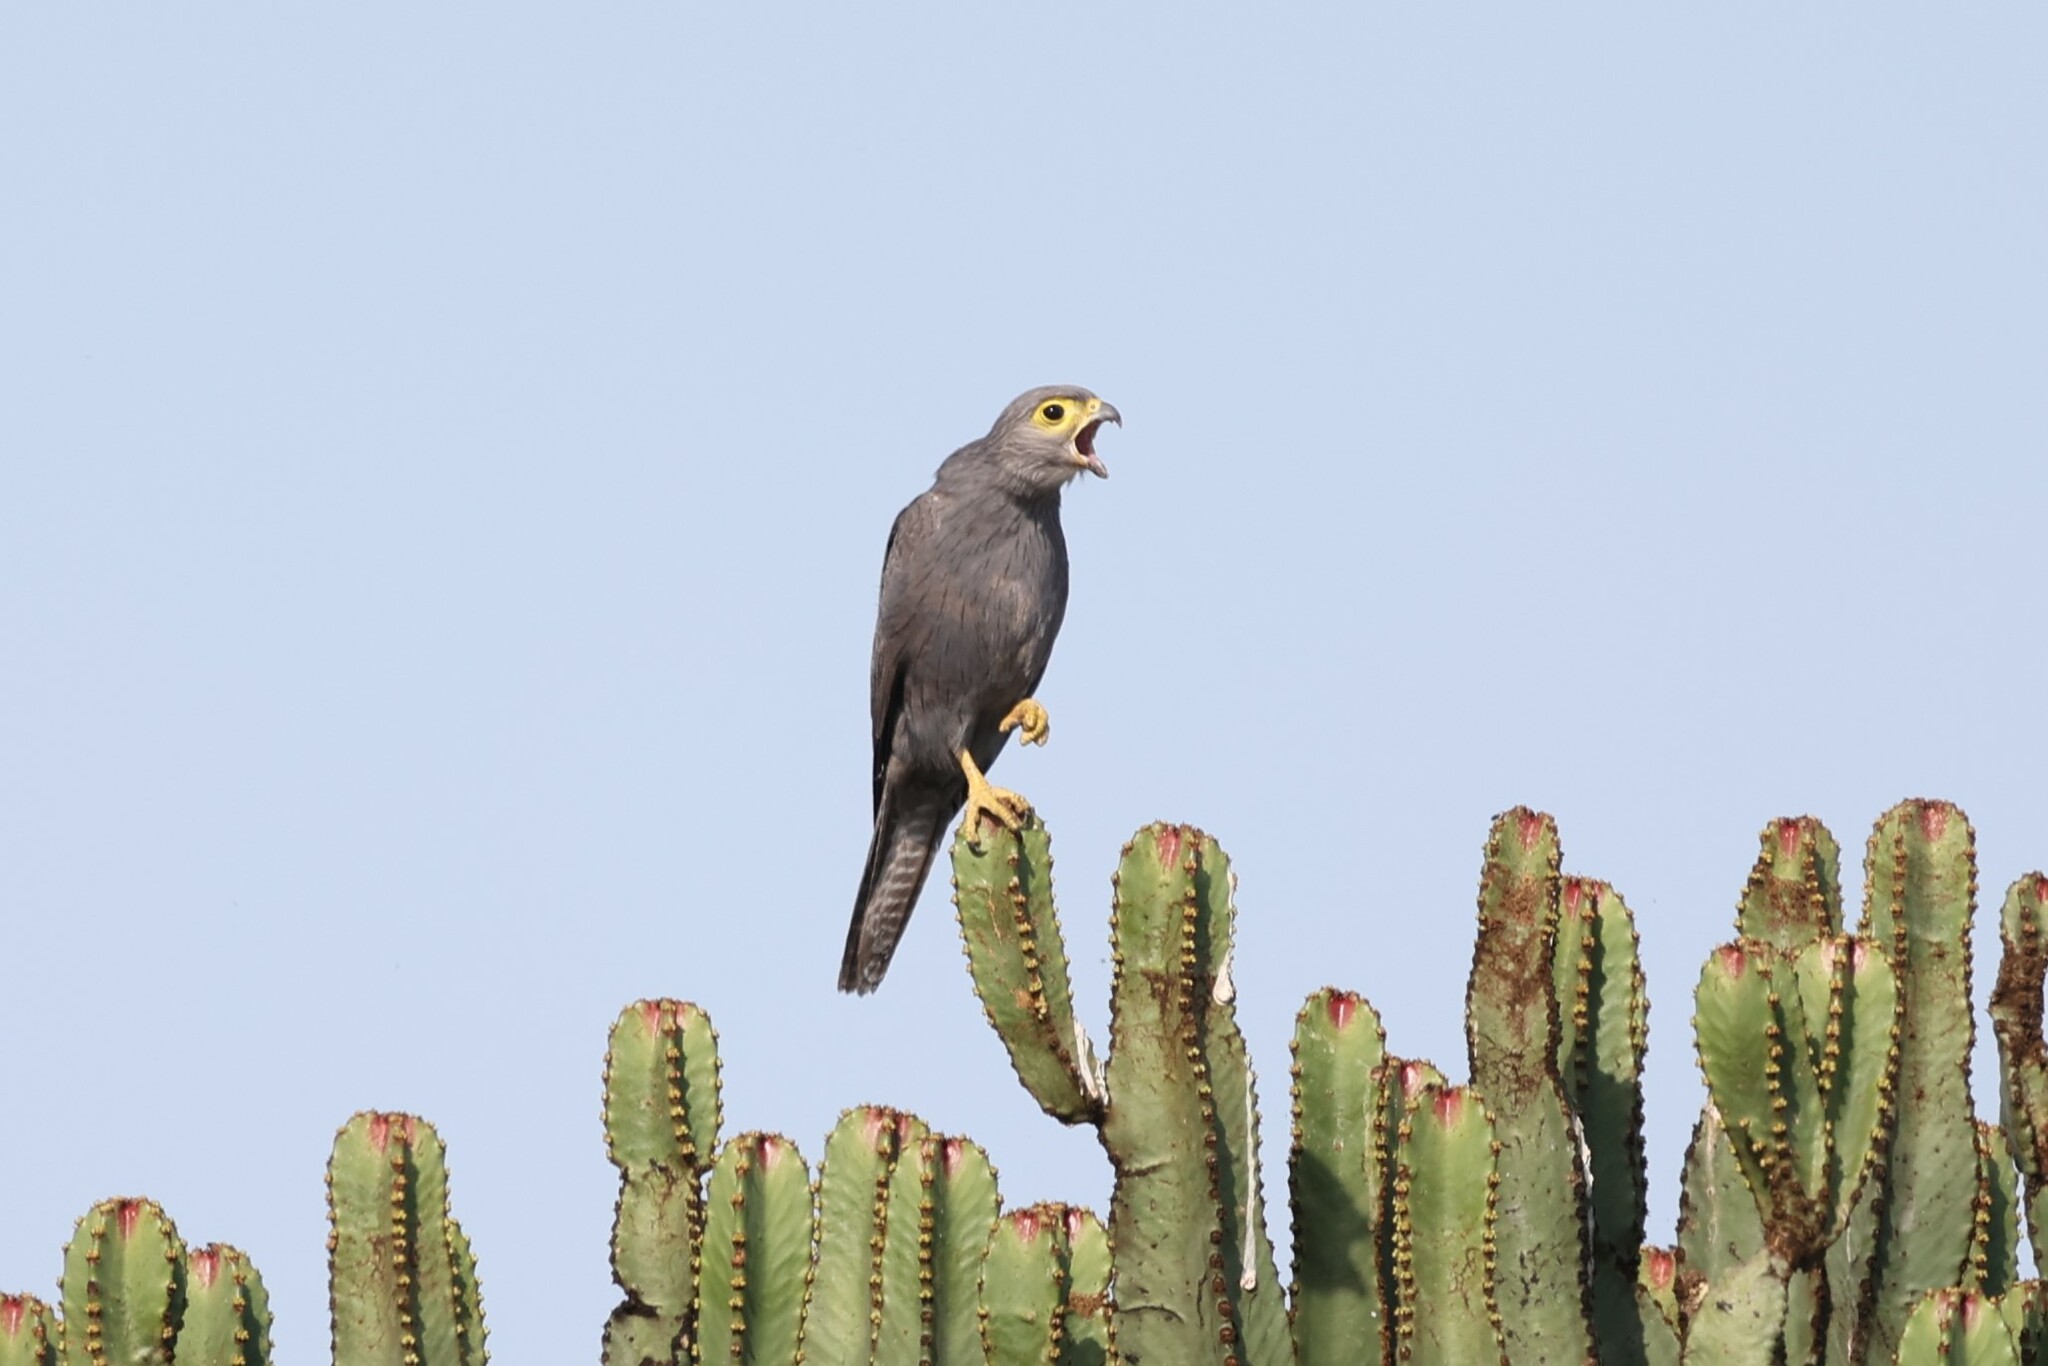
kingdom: Animalia
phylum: Chordata
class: Aves
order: Falconiformes
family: Falconidae
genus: Falco
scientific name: Falco ardosiaceus
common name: Grey kestrel
